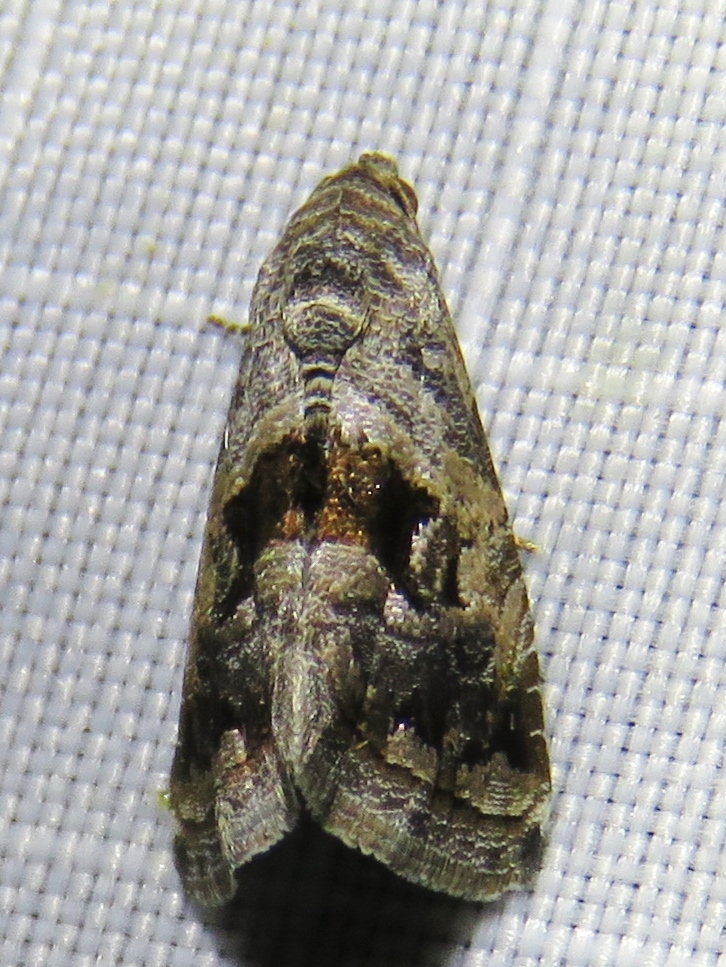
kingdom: Animalia
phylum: Arthropoda
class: Insecta
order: Lepidoptera
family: Noctuidae
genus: Tripudia
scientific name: Tripudia quadrifera
